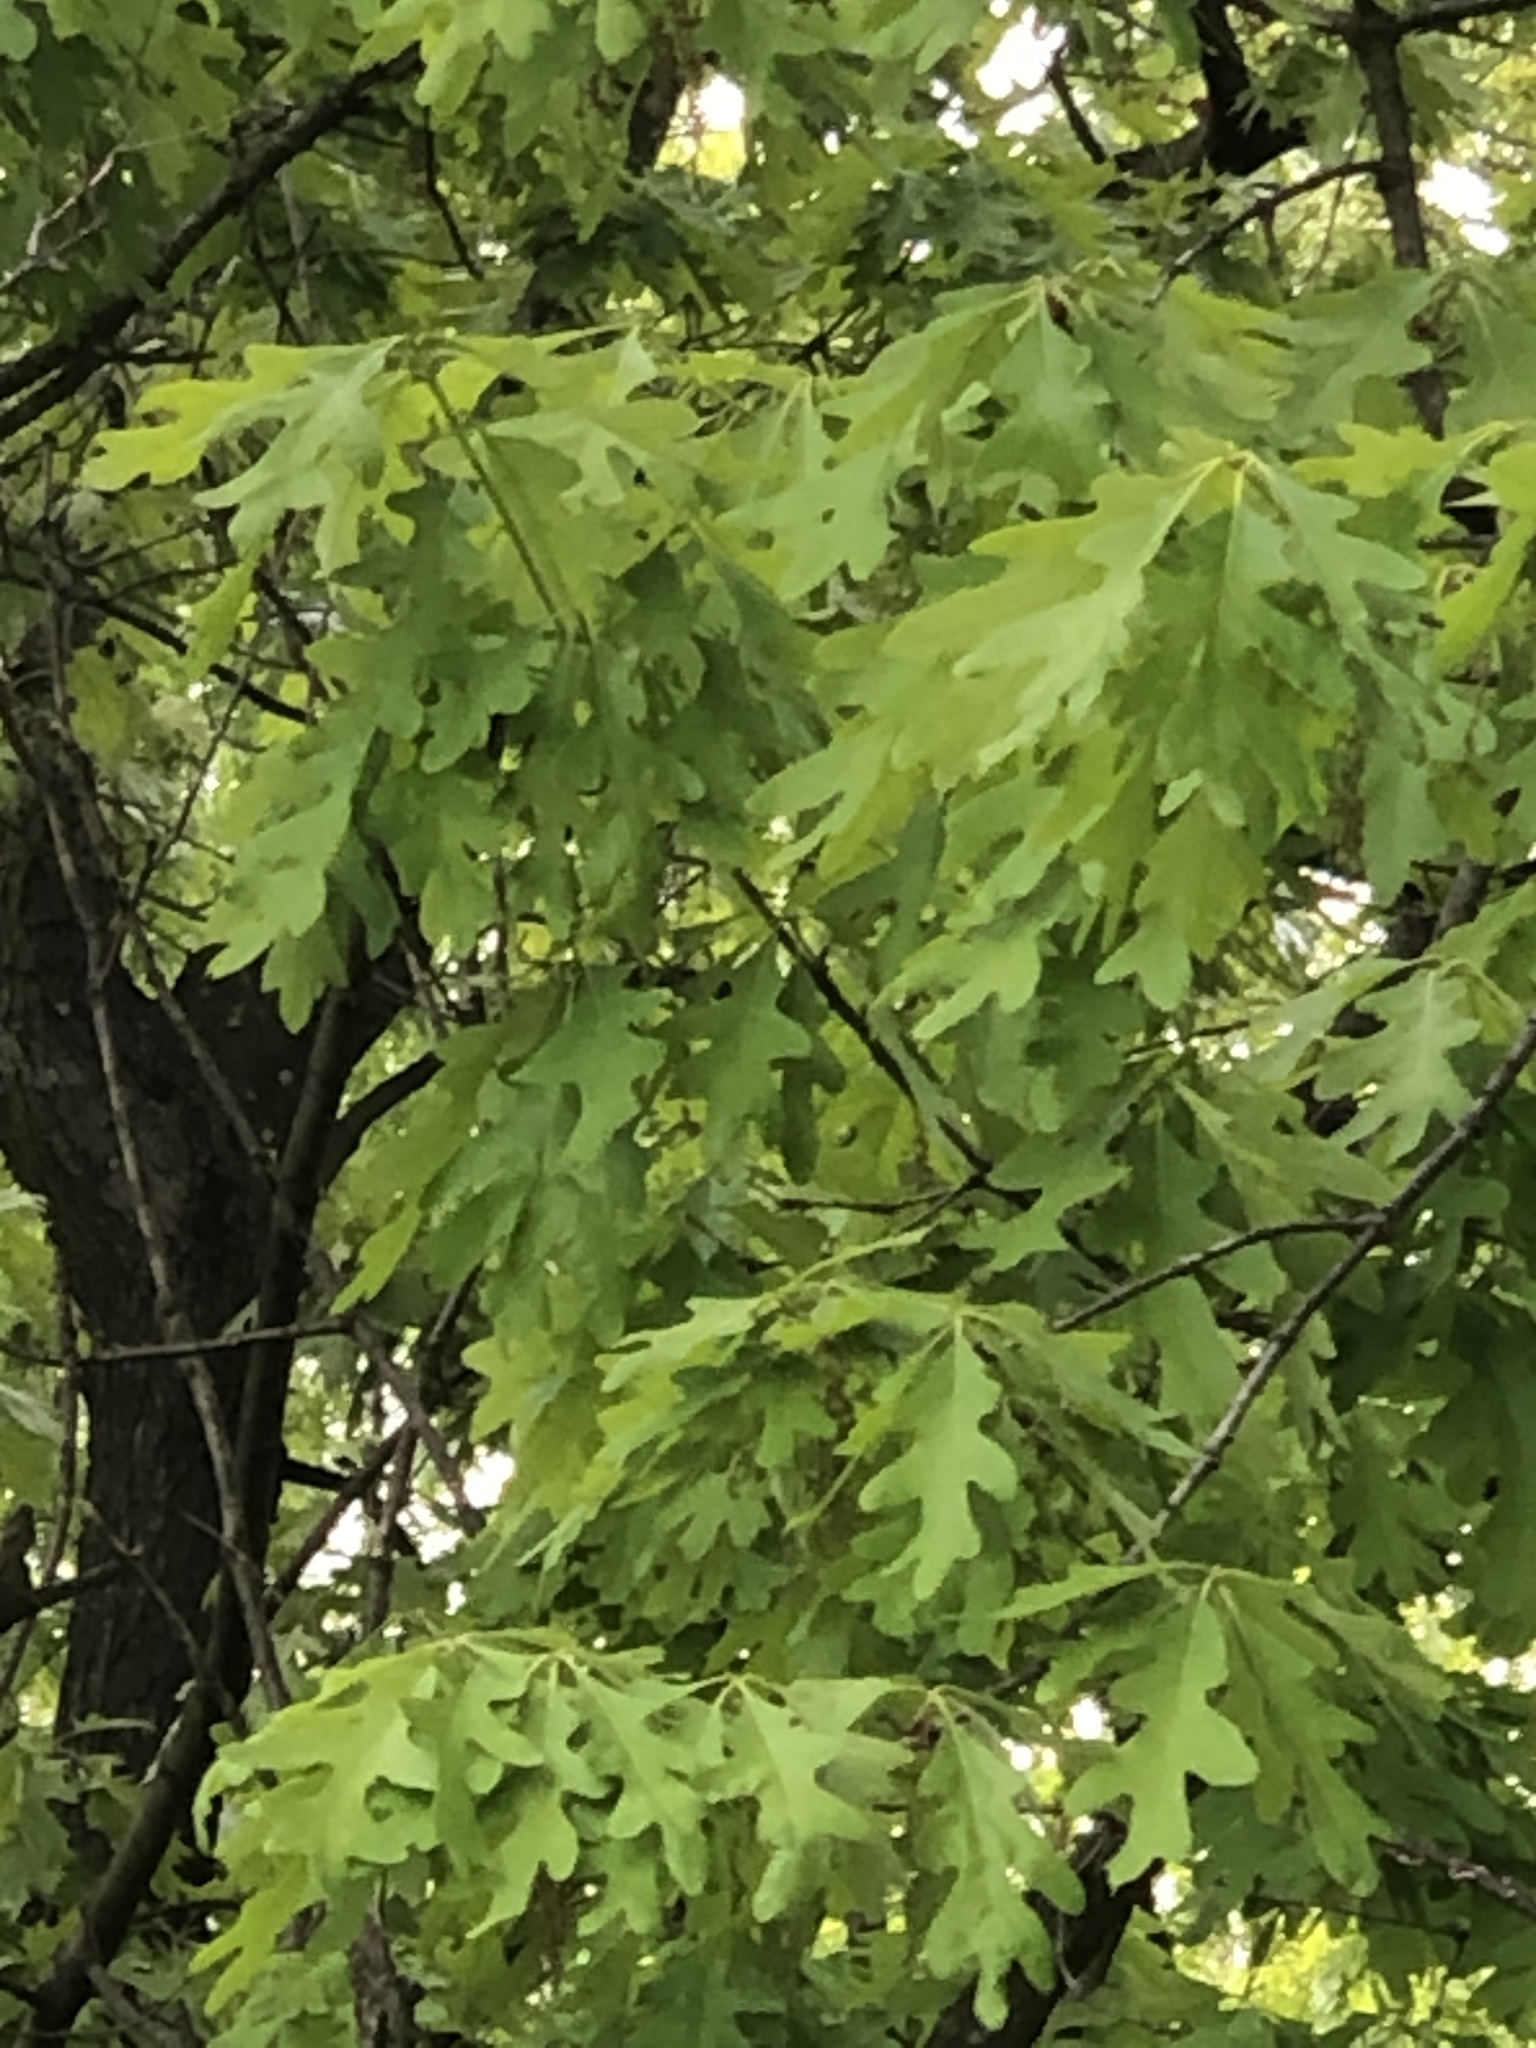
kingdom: Plantae
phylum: Tracheophyta
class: Magnoliopsida
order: Fagales
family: Fagaceae
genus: Quercus
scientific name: Quercus alba
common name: White oak
